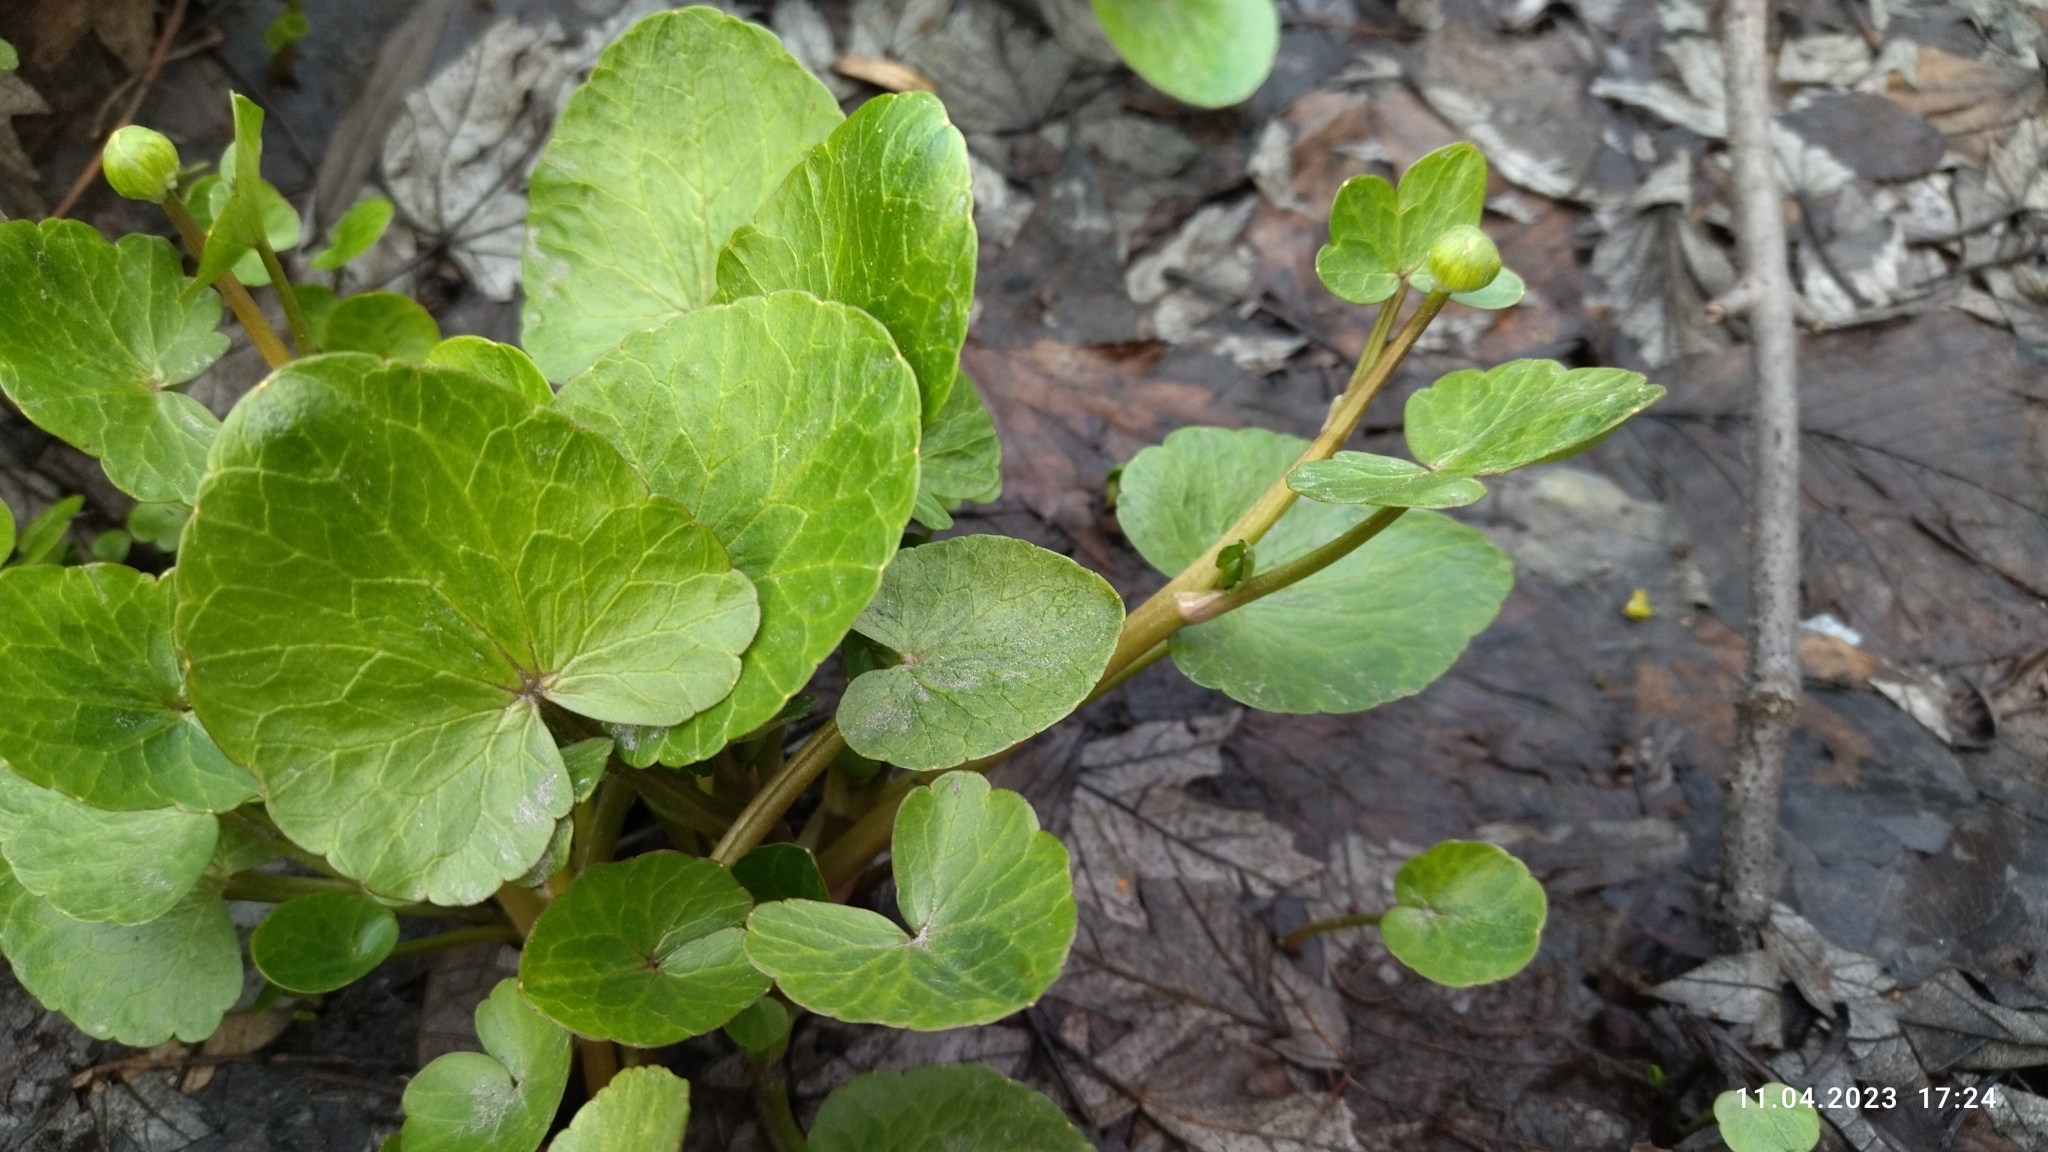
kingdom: Plantae
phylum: Tracheophyta
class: Magnoliopsida
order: Ranunculales
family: Ranunculaceae
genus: Ficaria
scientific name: Ficaria verna
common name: Lesser celandine
